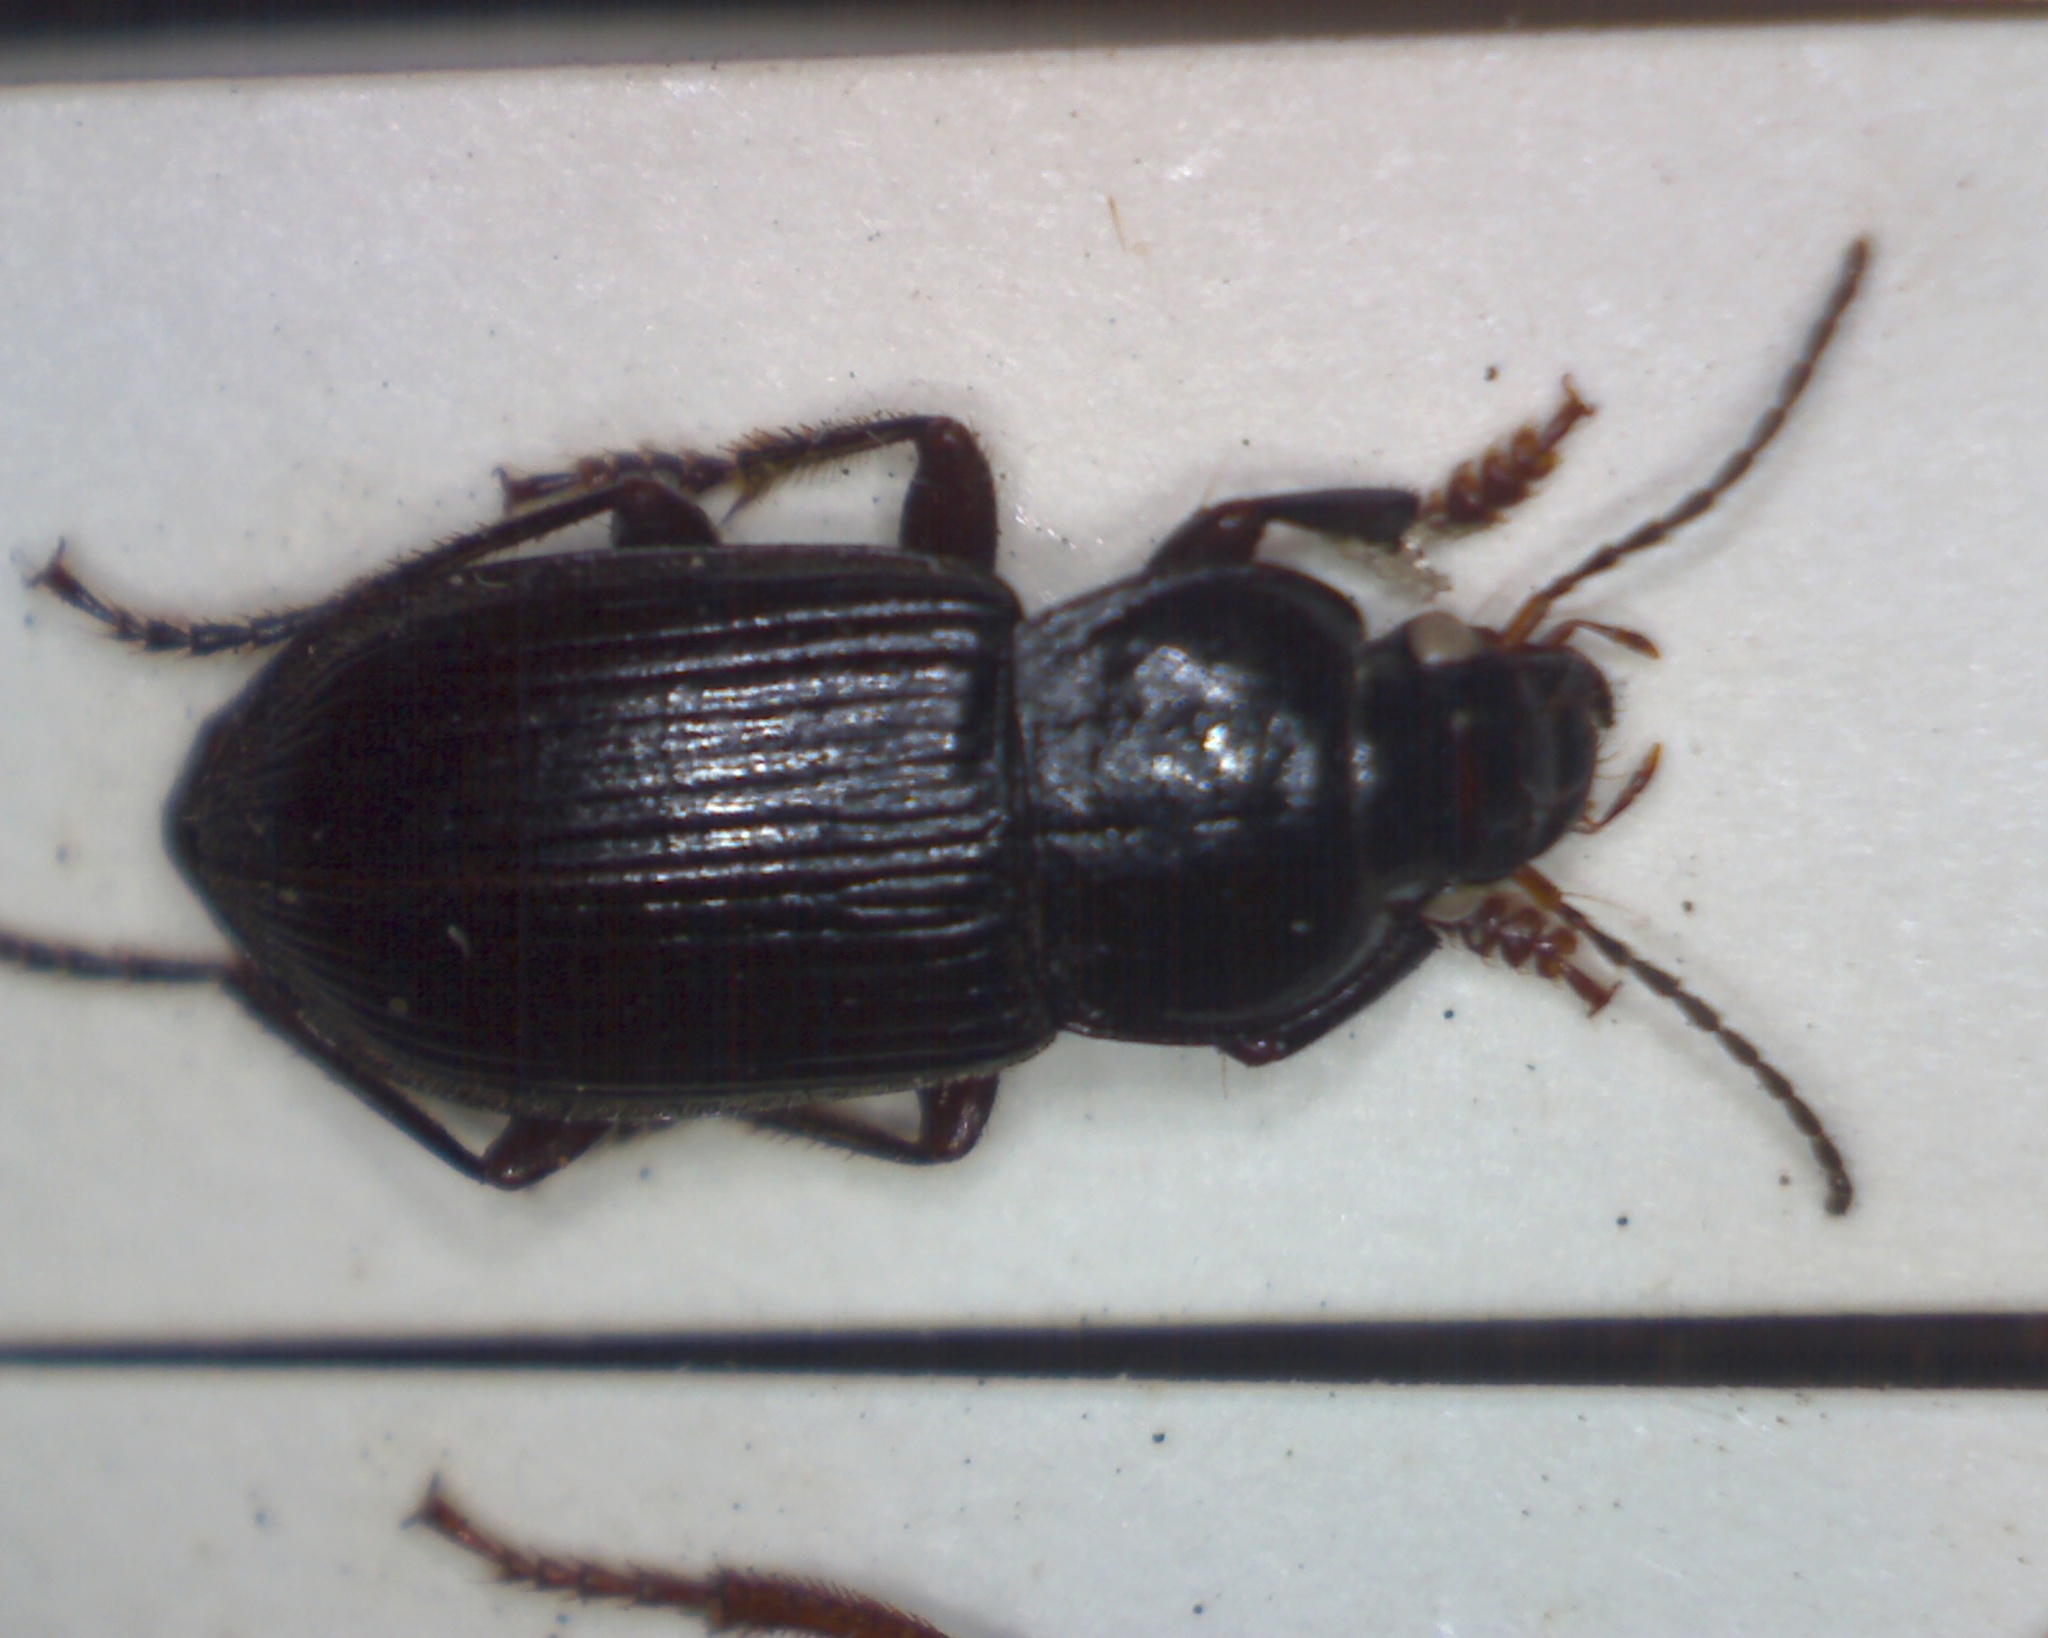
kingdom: Animalia
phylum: Arthropoda
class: Insecta
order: Coleoptera
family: Carabidae
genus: Anisodactylus
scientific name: Anisodactylus binotatus
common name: Two-marked harp ground beetle
